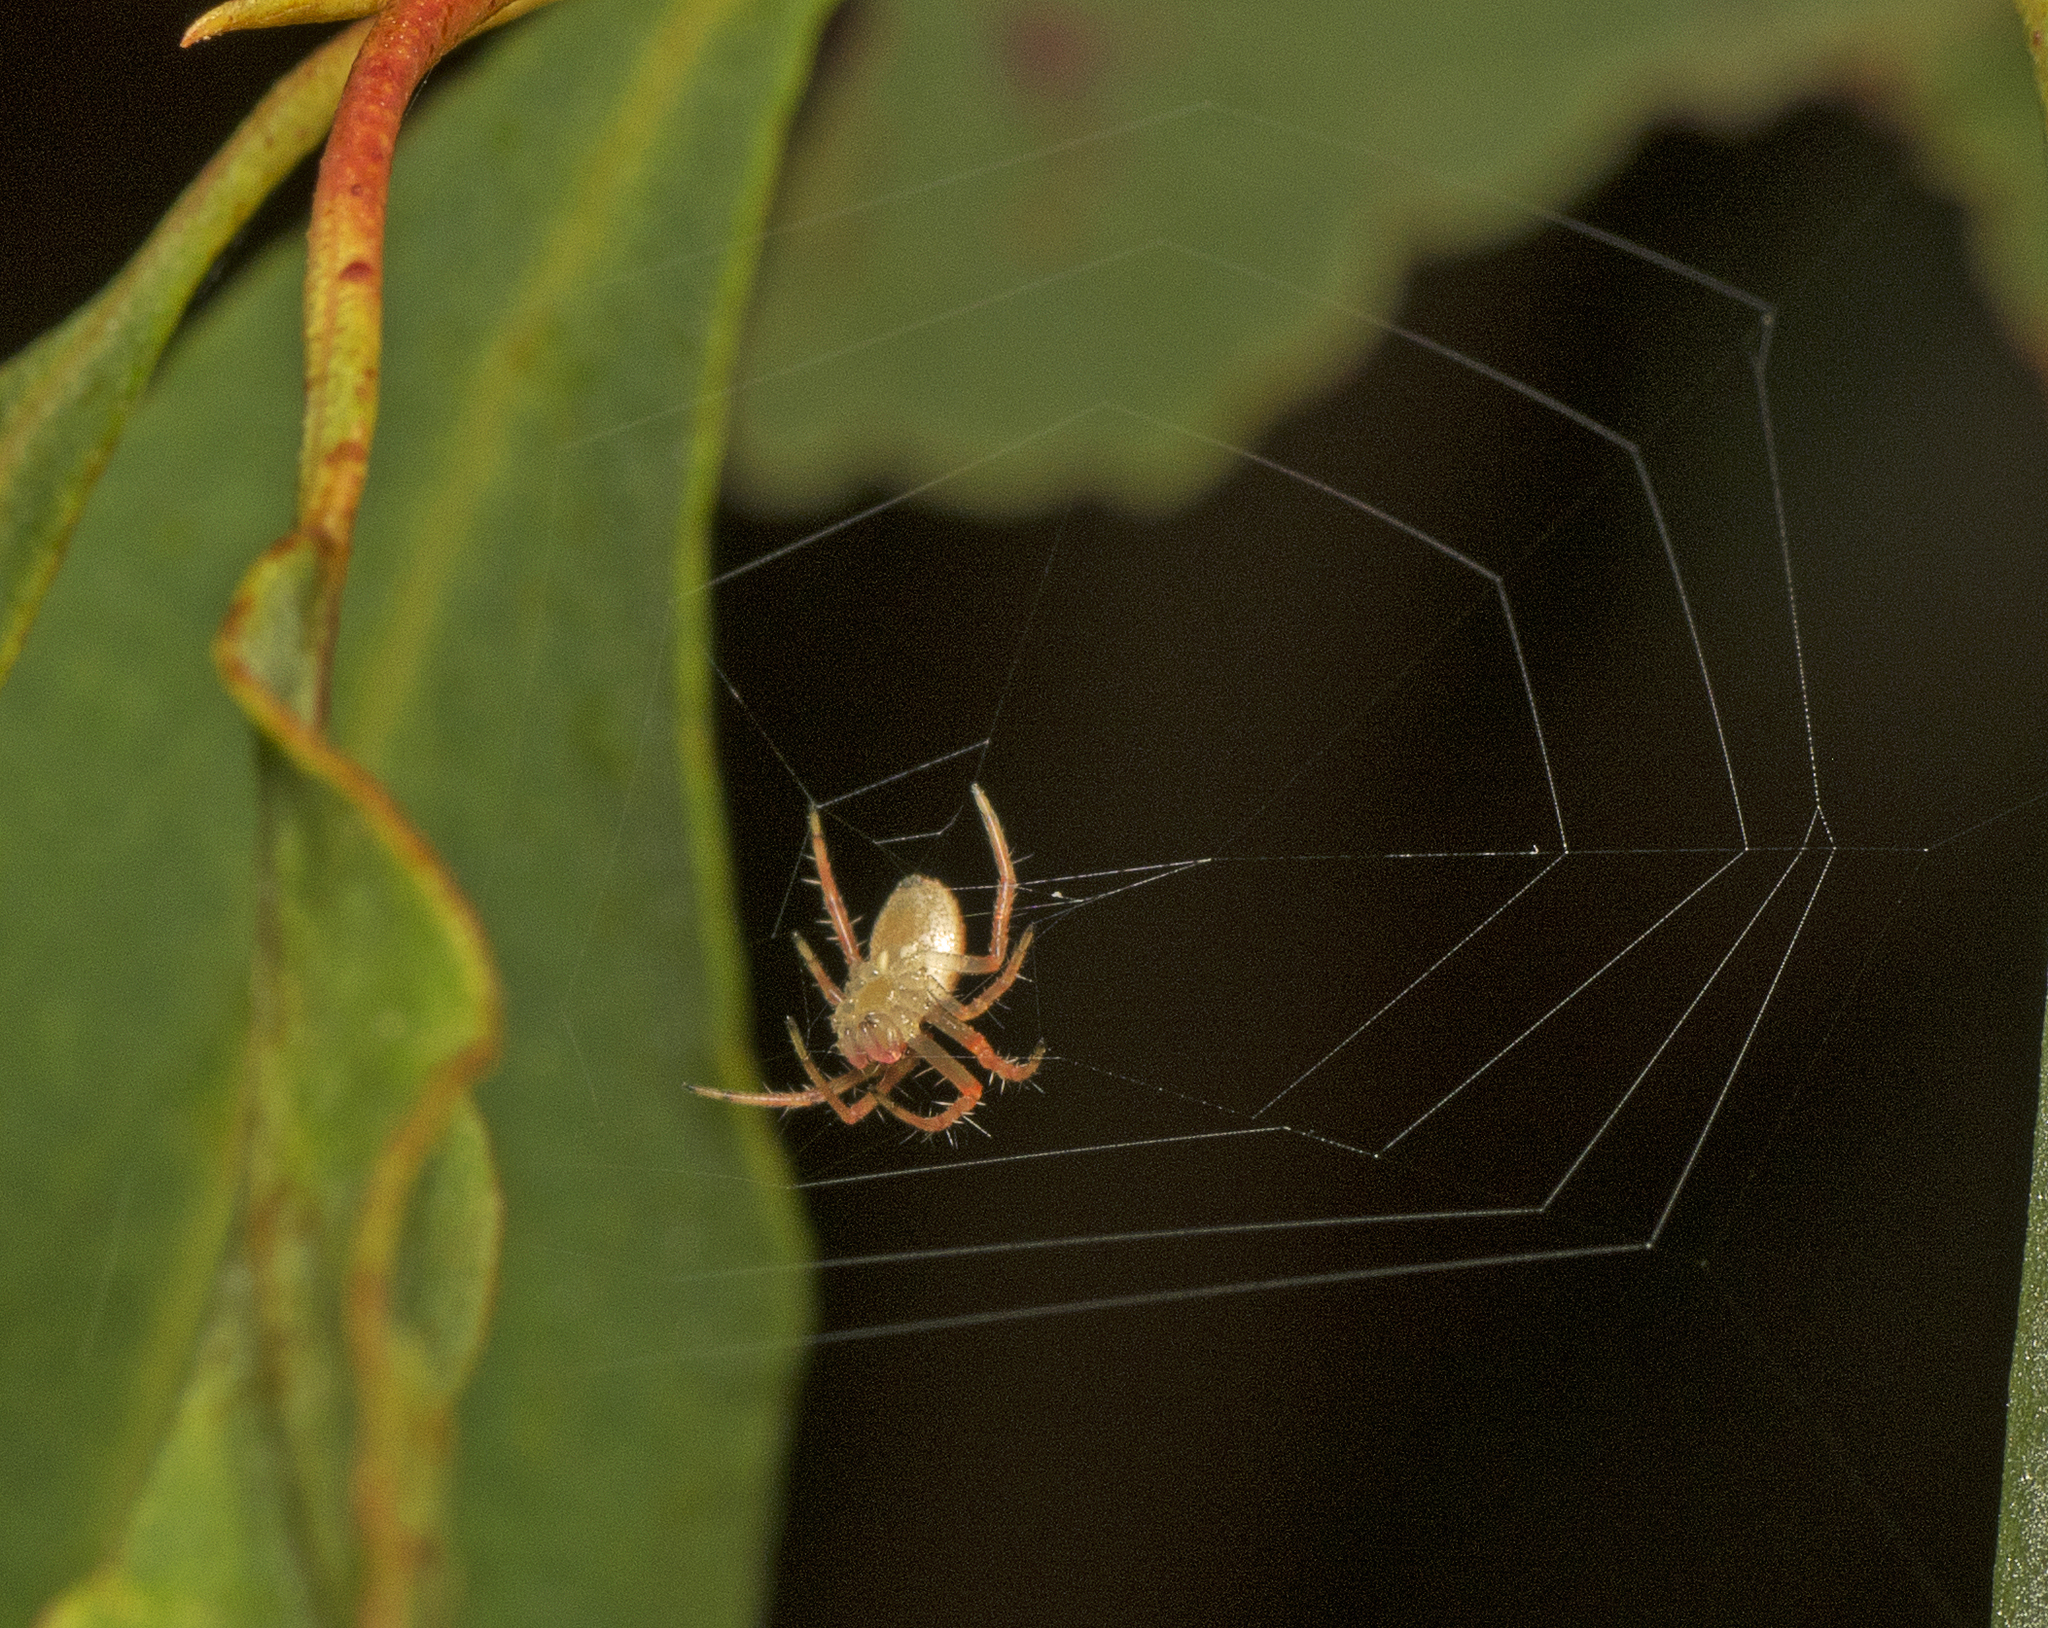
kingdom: Animalia
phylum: Arthropoda
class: Arachnida
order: Araneae
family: Araneidae
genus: Araneus
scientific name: Araneus talipedatus
